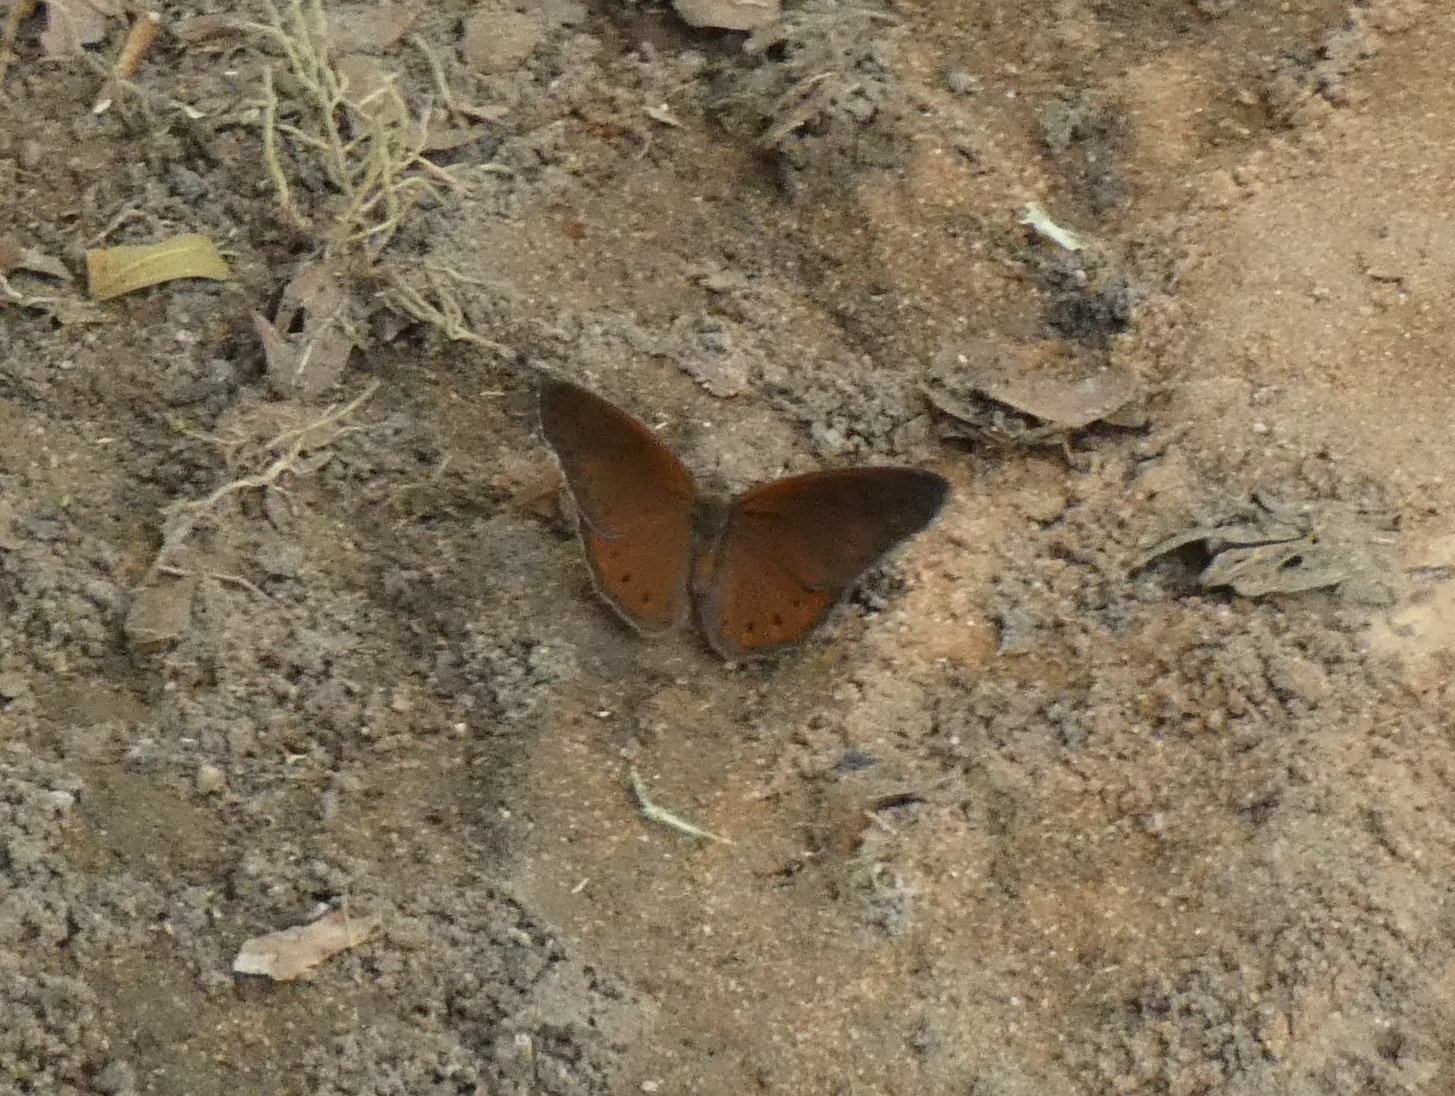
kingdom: Animalia
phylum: Arthropoda
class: Insecta
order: Lepidoptera
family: Nymphalidae
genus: Asterope
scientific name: Asterope boisduvali
